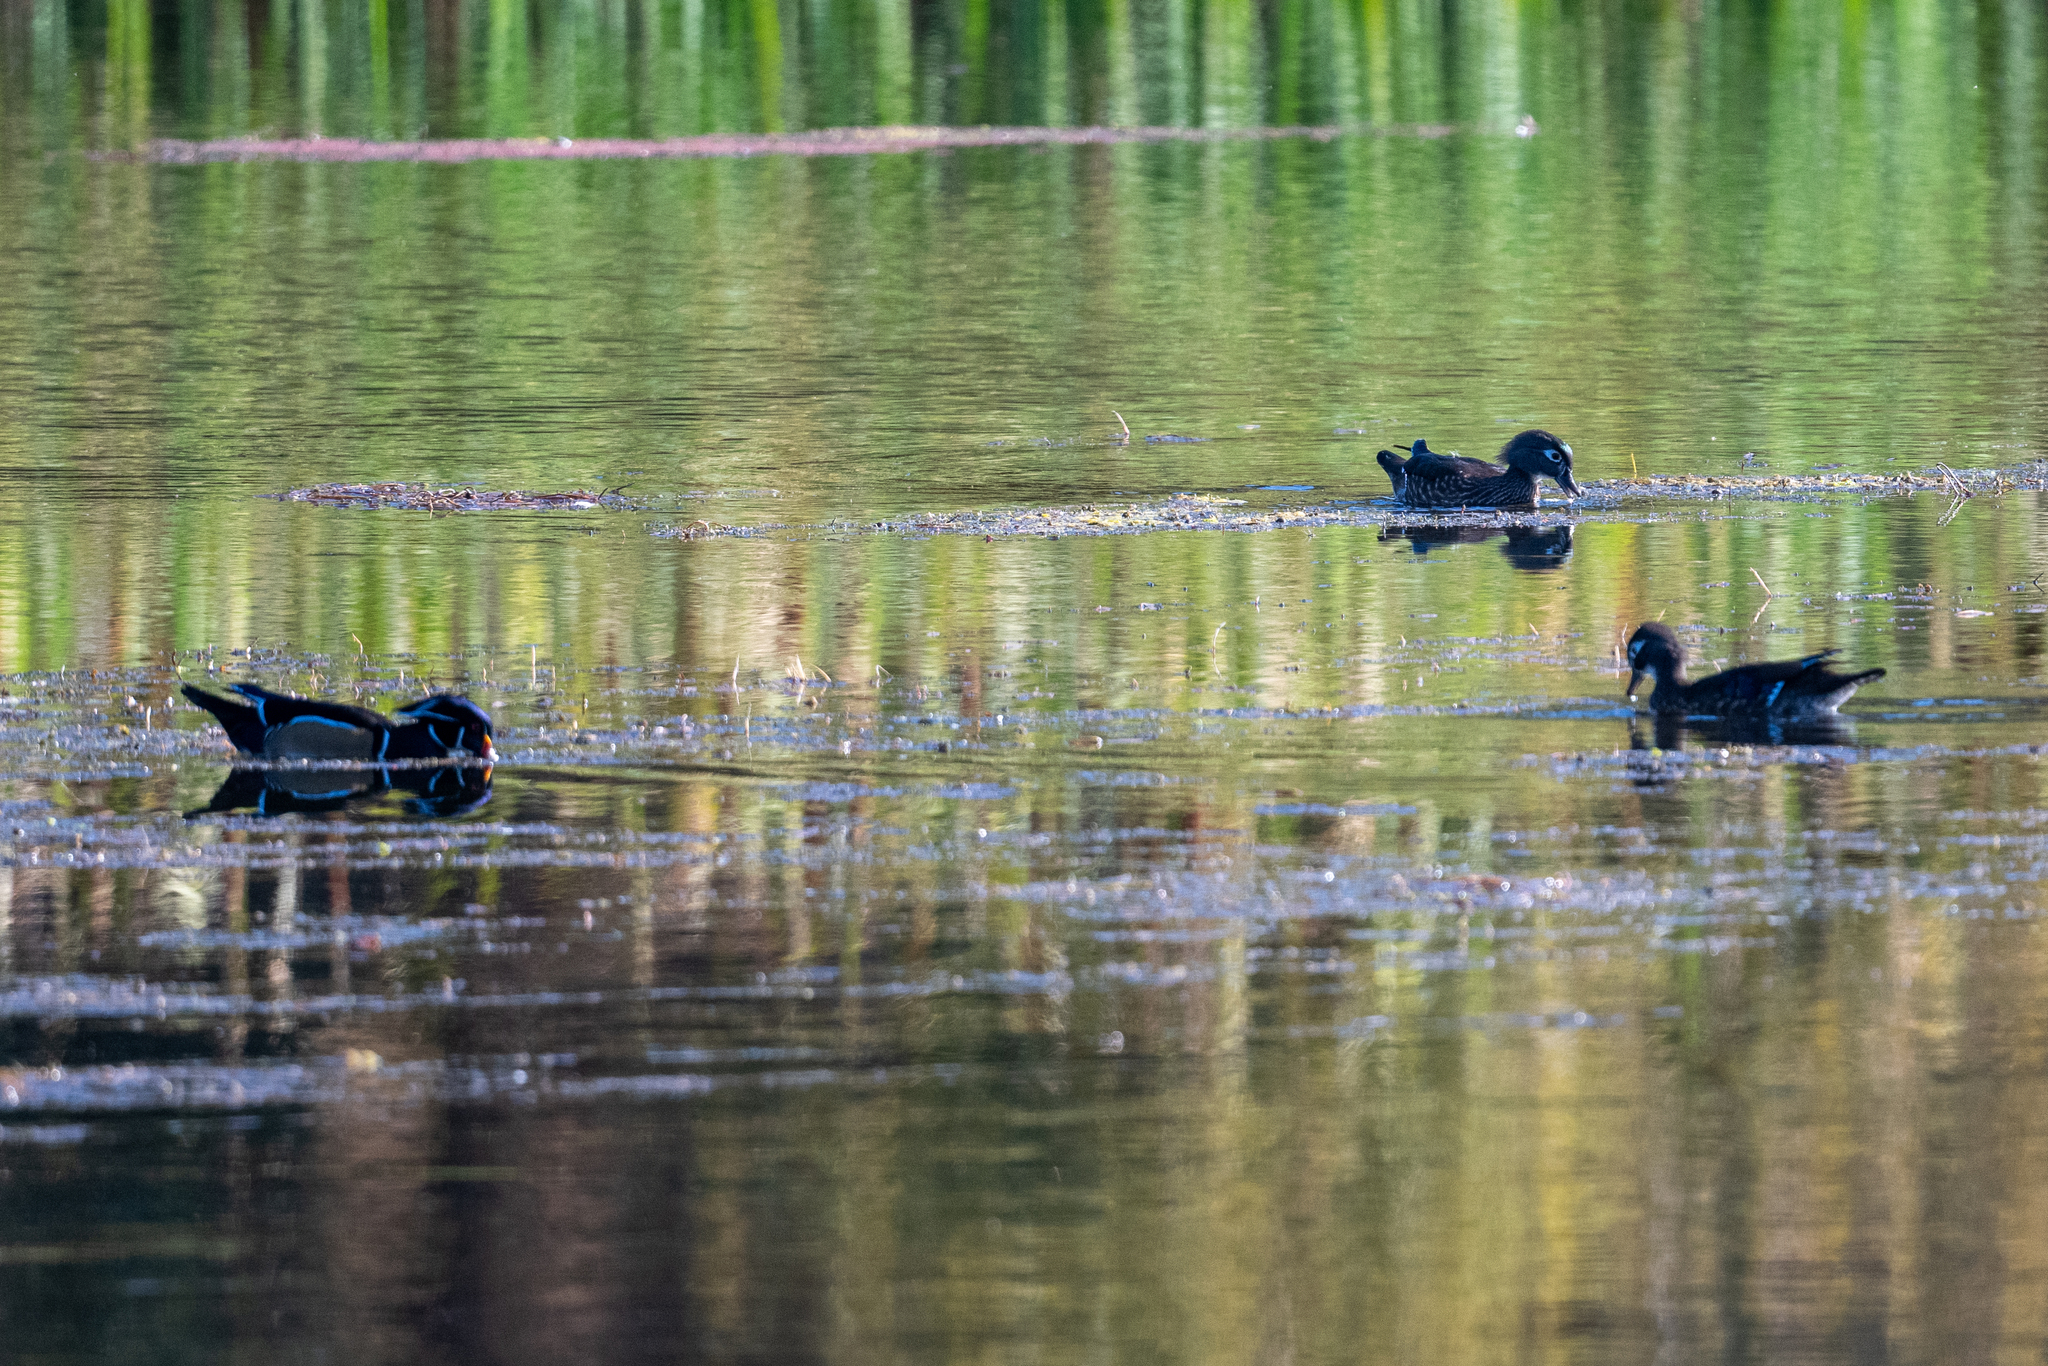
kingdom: Animalia
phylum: Chordata
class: Aves
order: Anseriformes
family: Anatidae
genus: Aix
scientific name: Aix sponsa
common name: Wood duck
